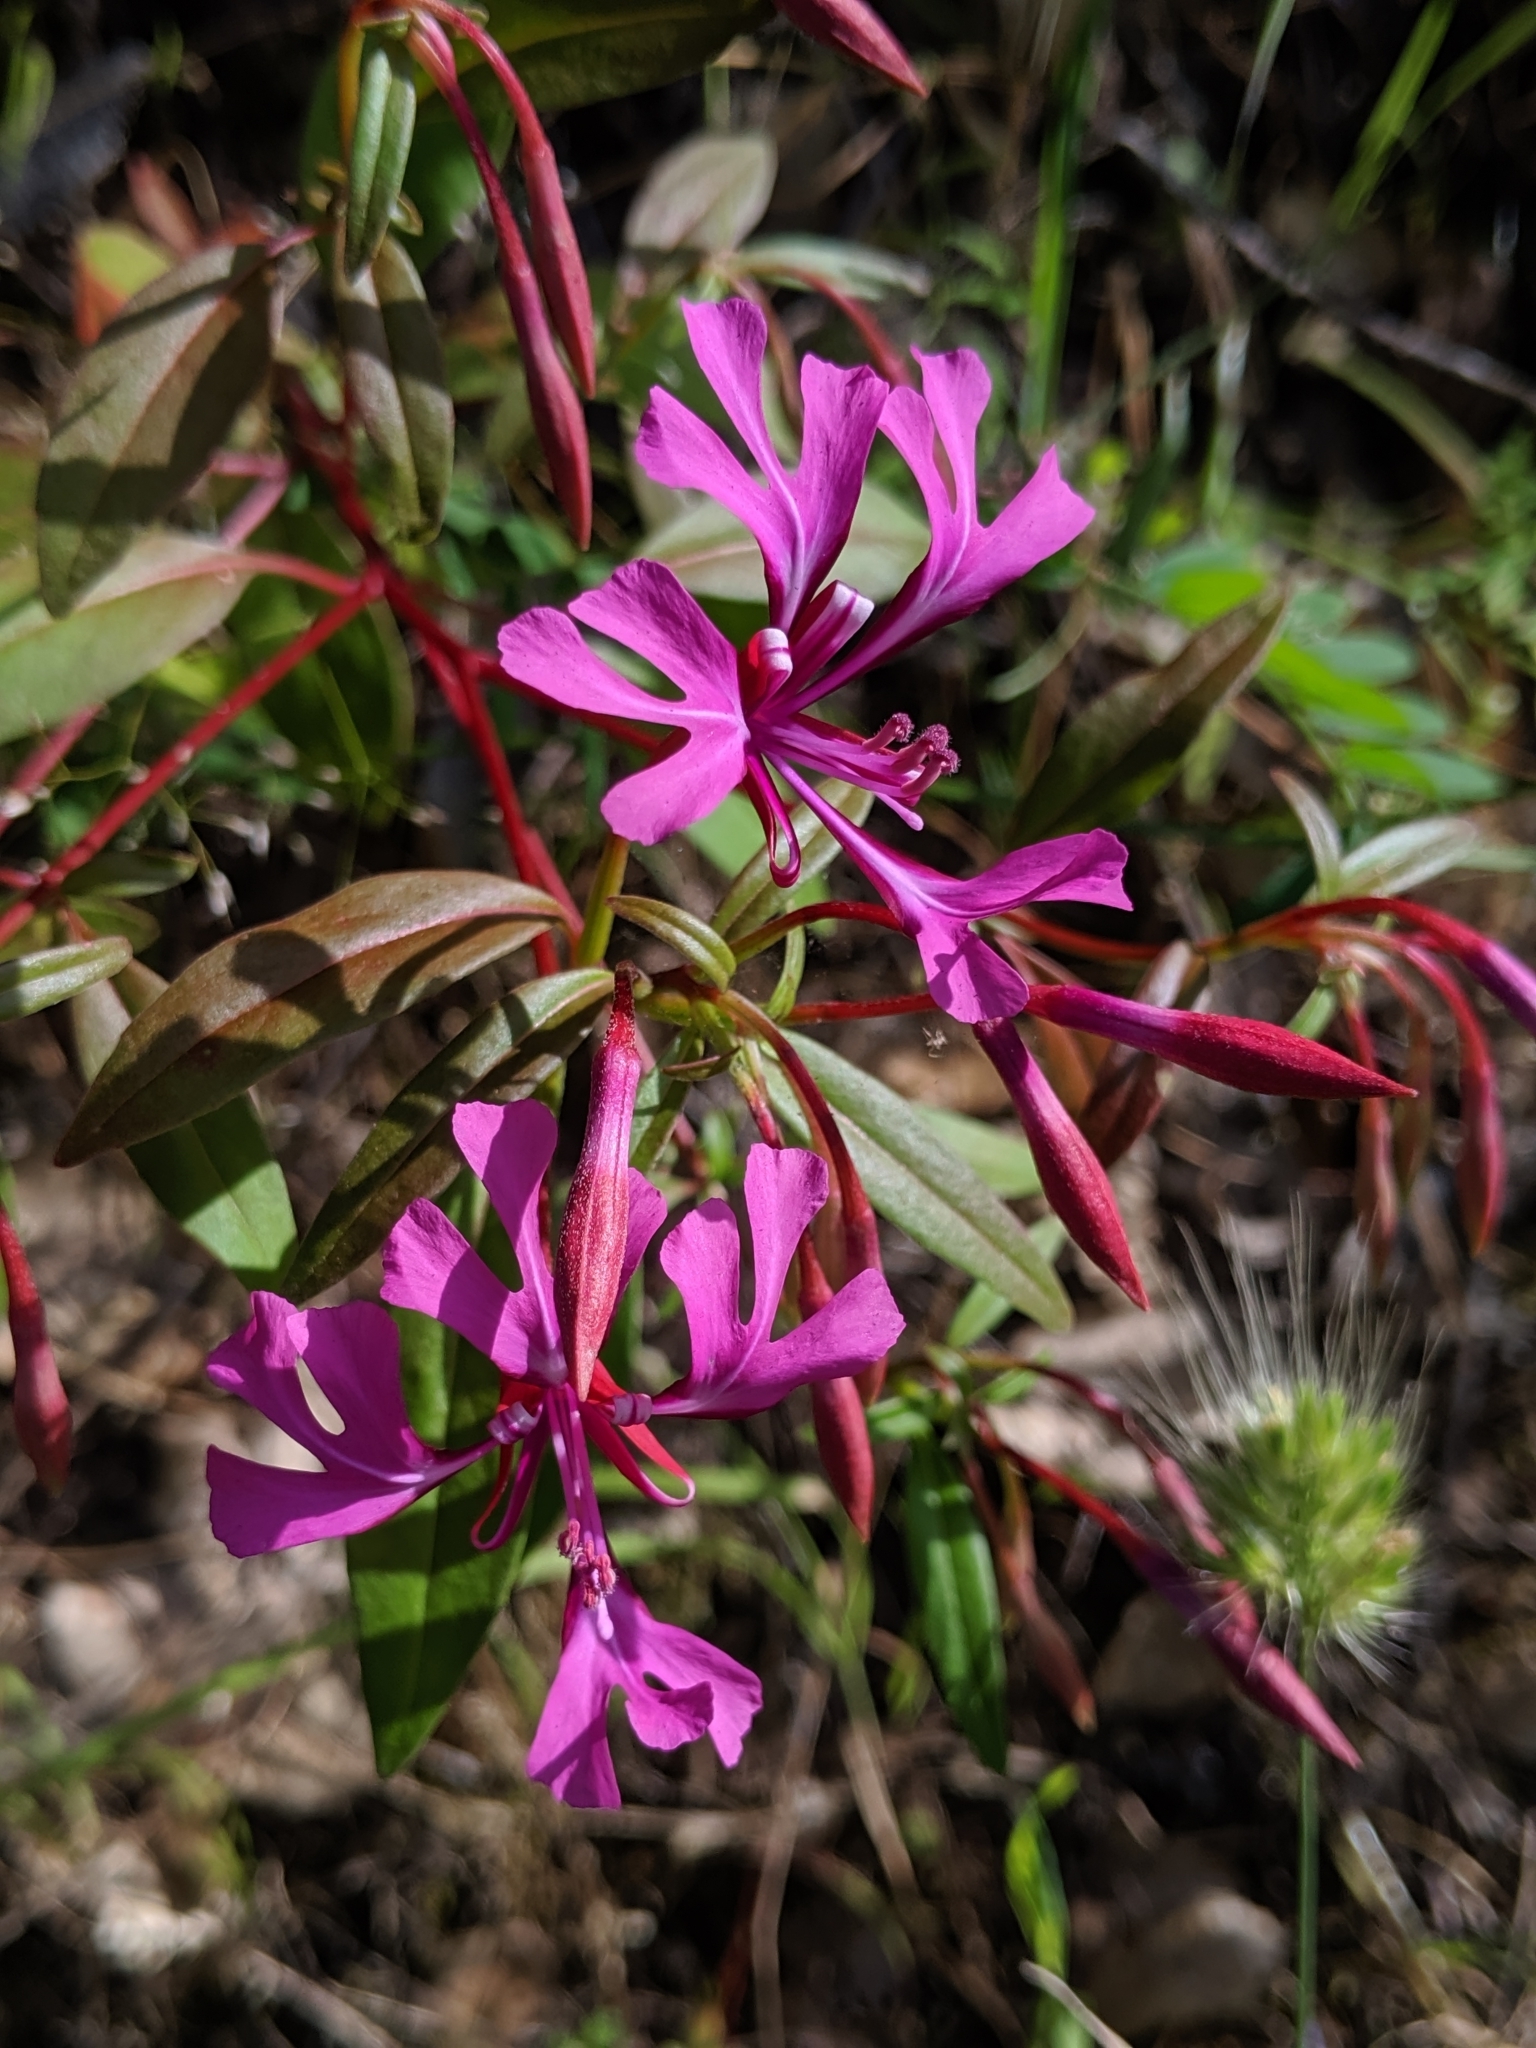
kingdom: Plantae
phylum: Tracheophyta
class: Magnoliopsida
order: Myrtales
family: Onagraceae
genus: Clarkia
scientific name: Clarkia concinna
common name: Red-ribbons
